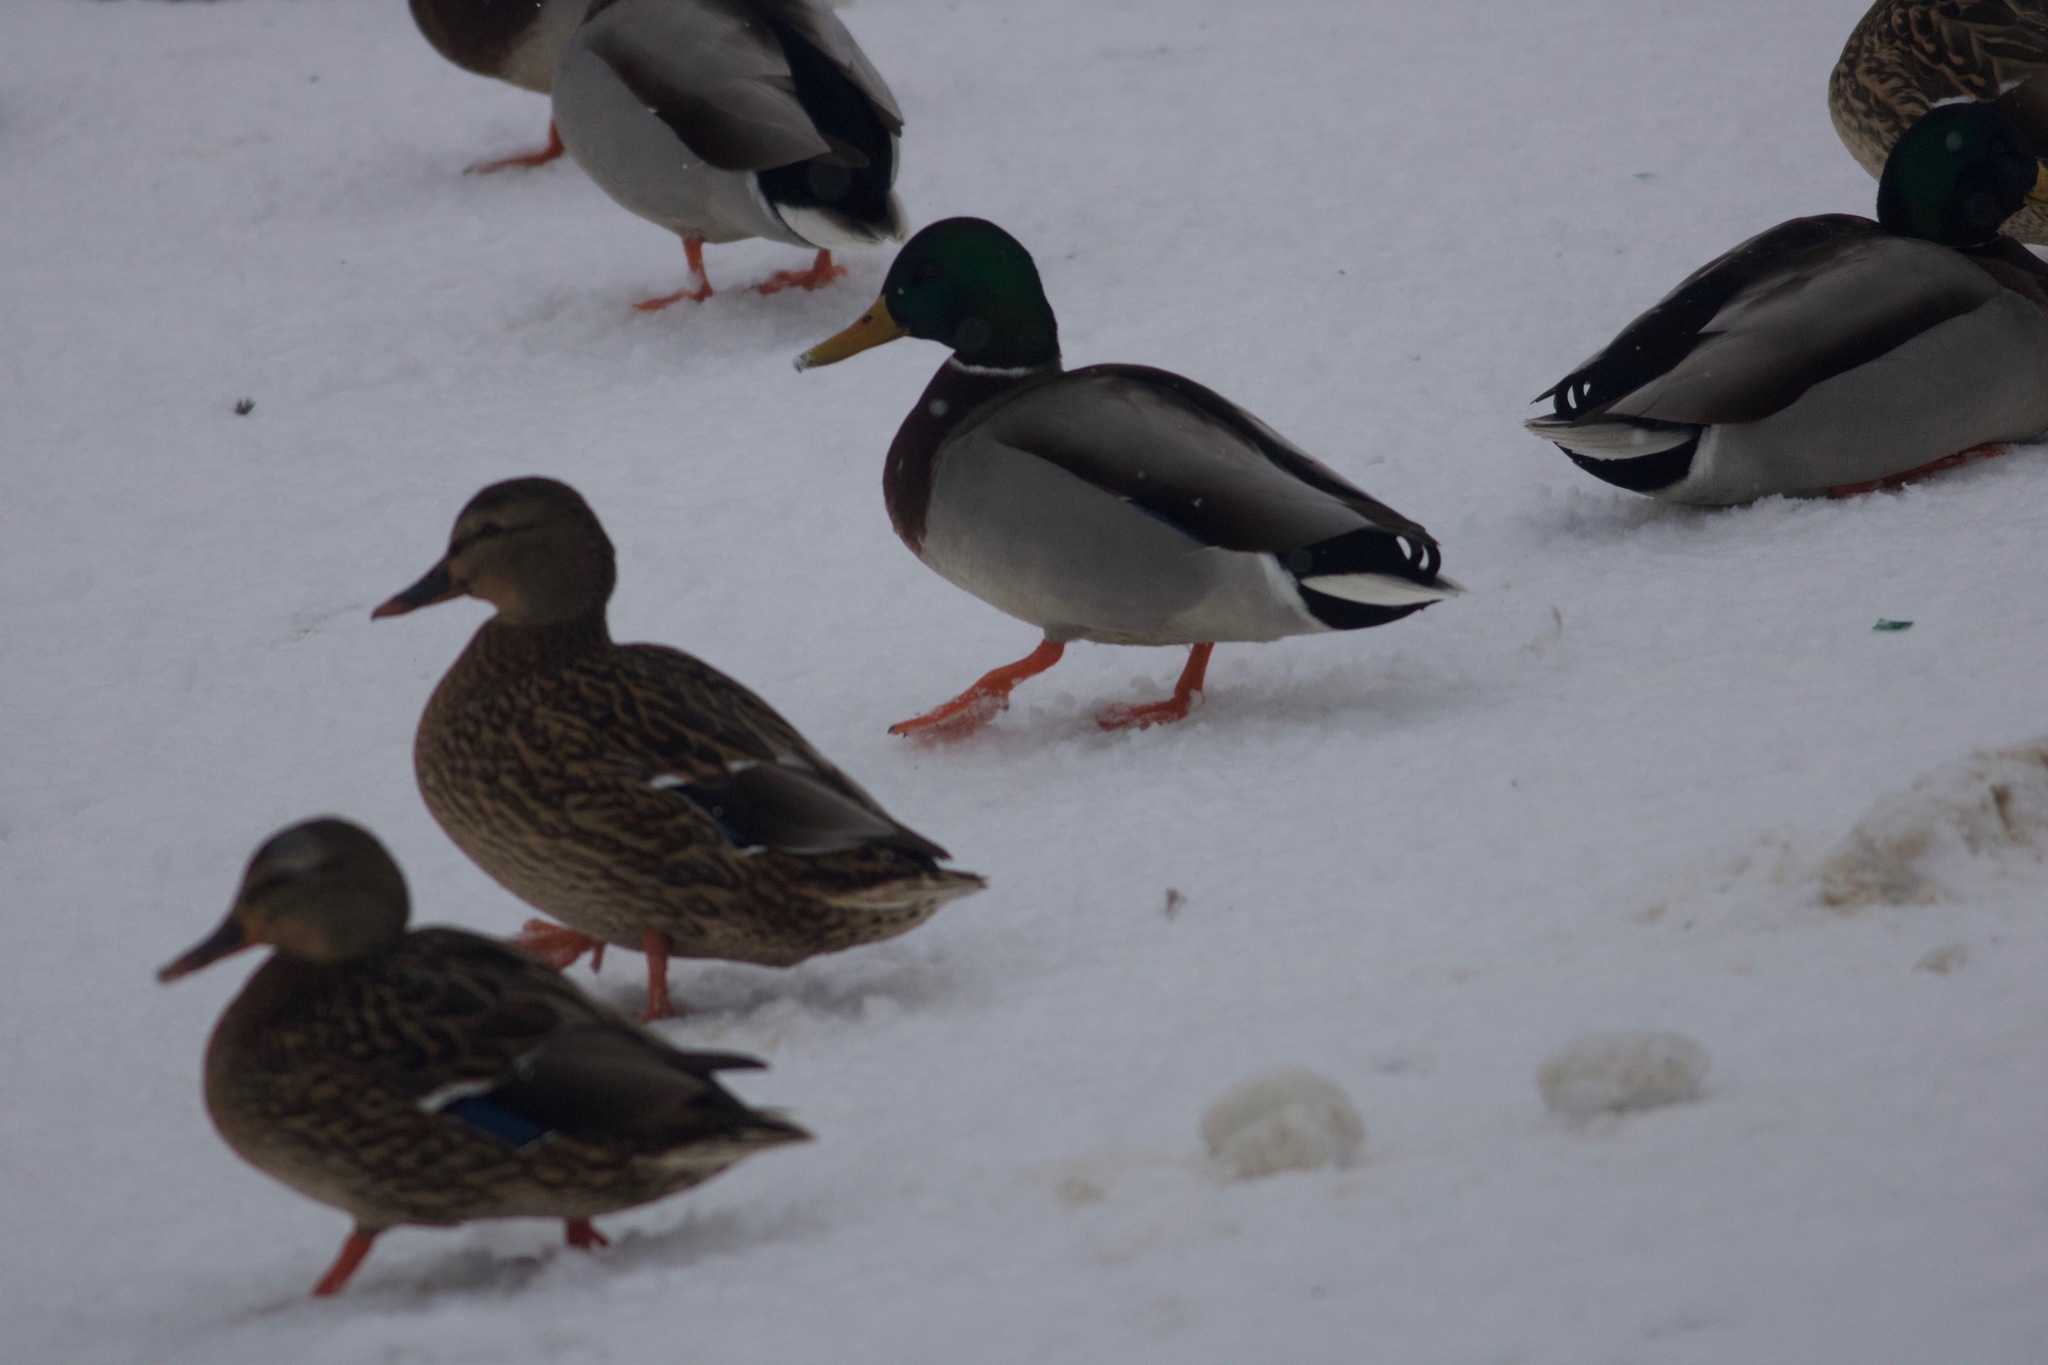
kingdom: Animalia
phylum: Chordata
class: Aves
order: Anseriformes
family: Anatidae
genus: Anas
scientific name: Anas platyrhynchos
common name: Mallard
